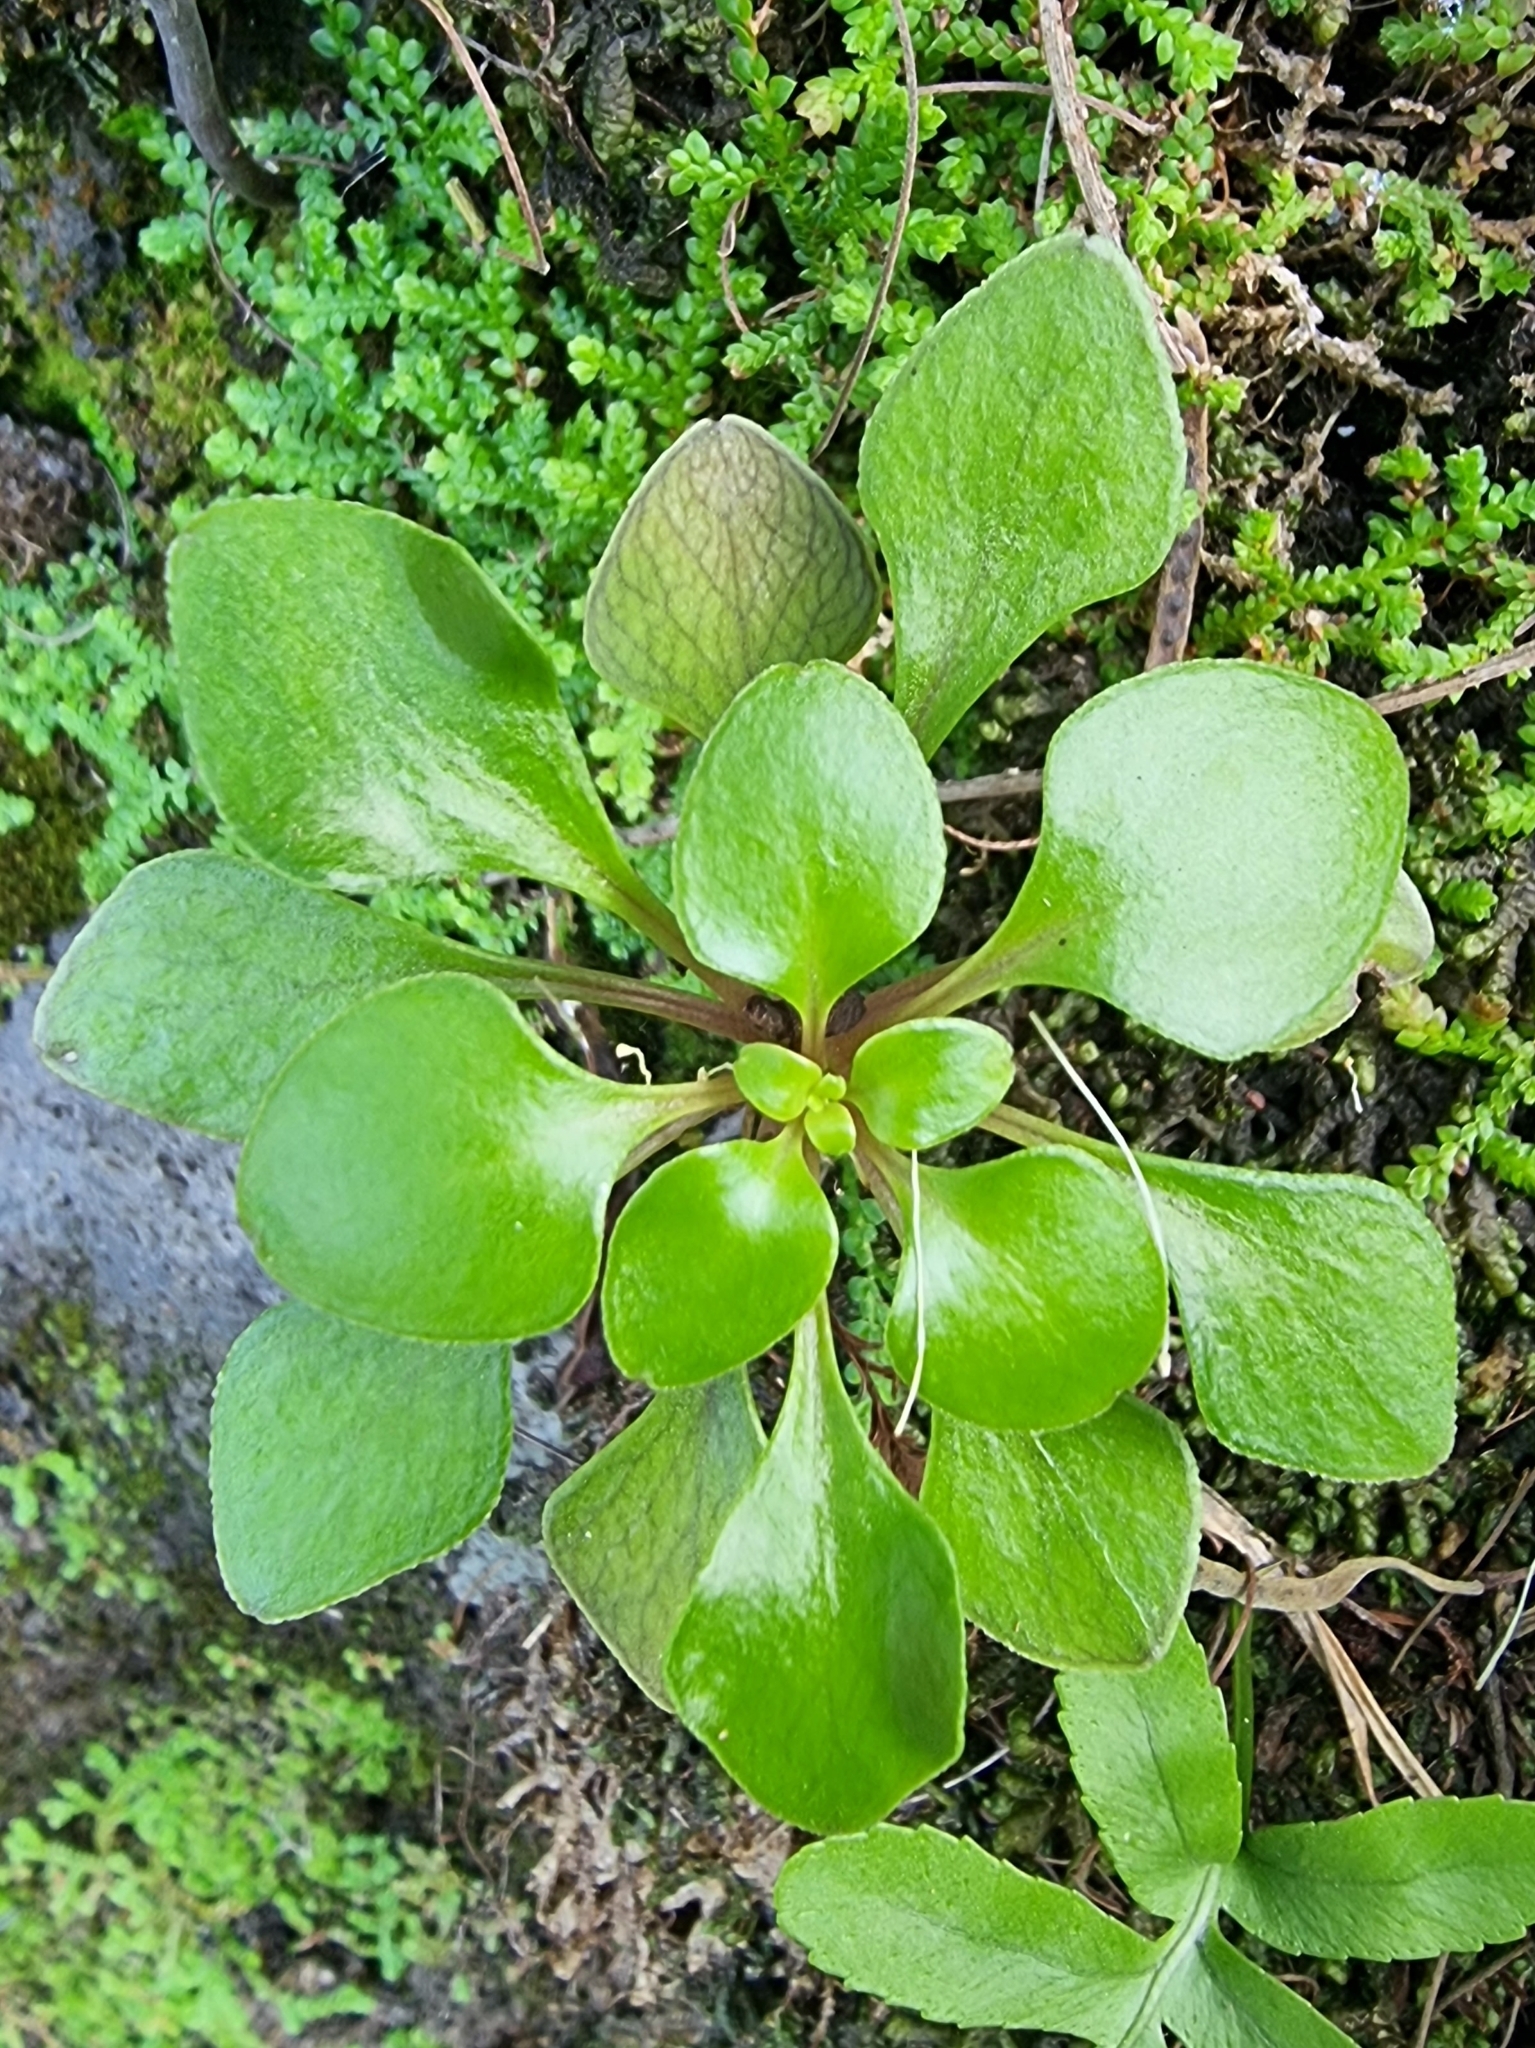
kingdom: Plantae
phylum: Tracheophyta
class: Magnoliopsida
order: Saxifragales
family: Crassulaceae
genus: Aichryson
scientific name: Aichryson divaricatum
